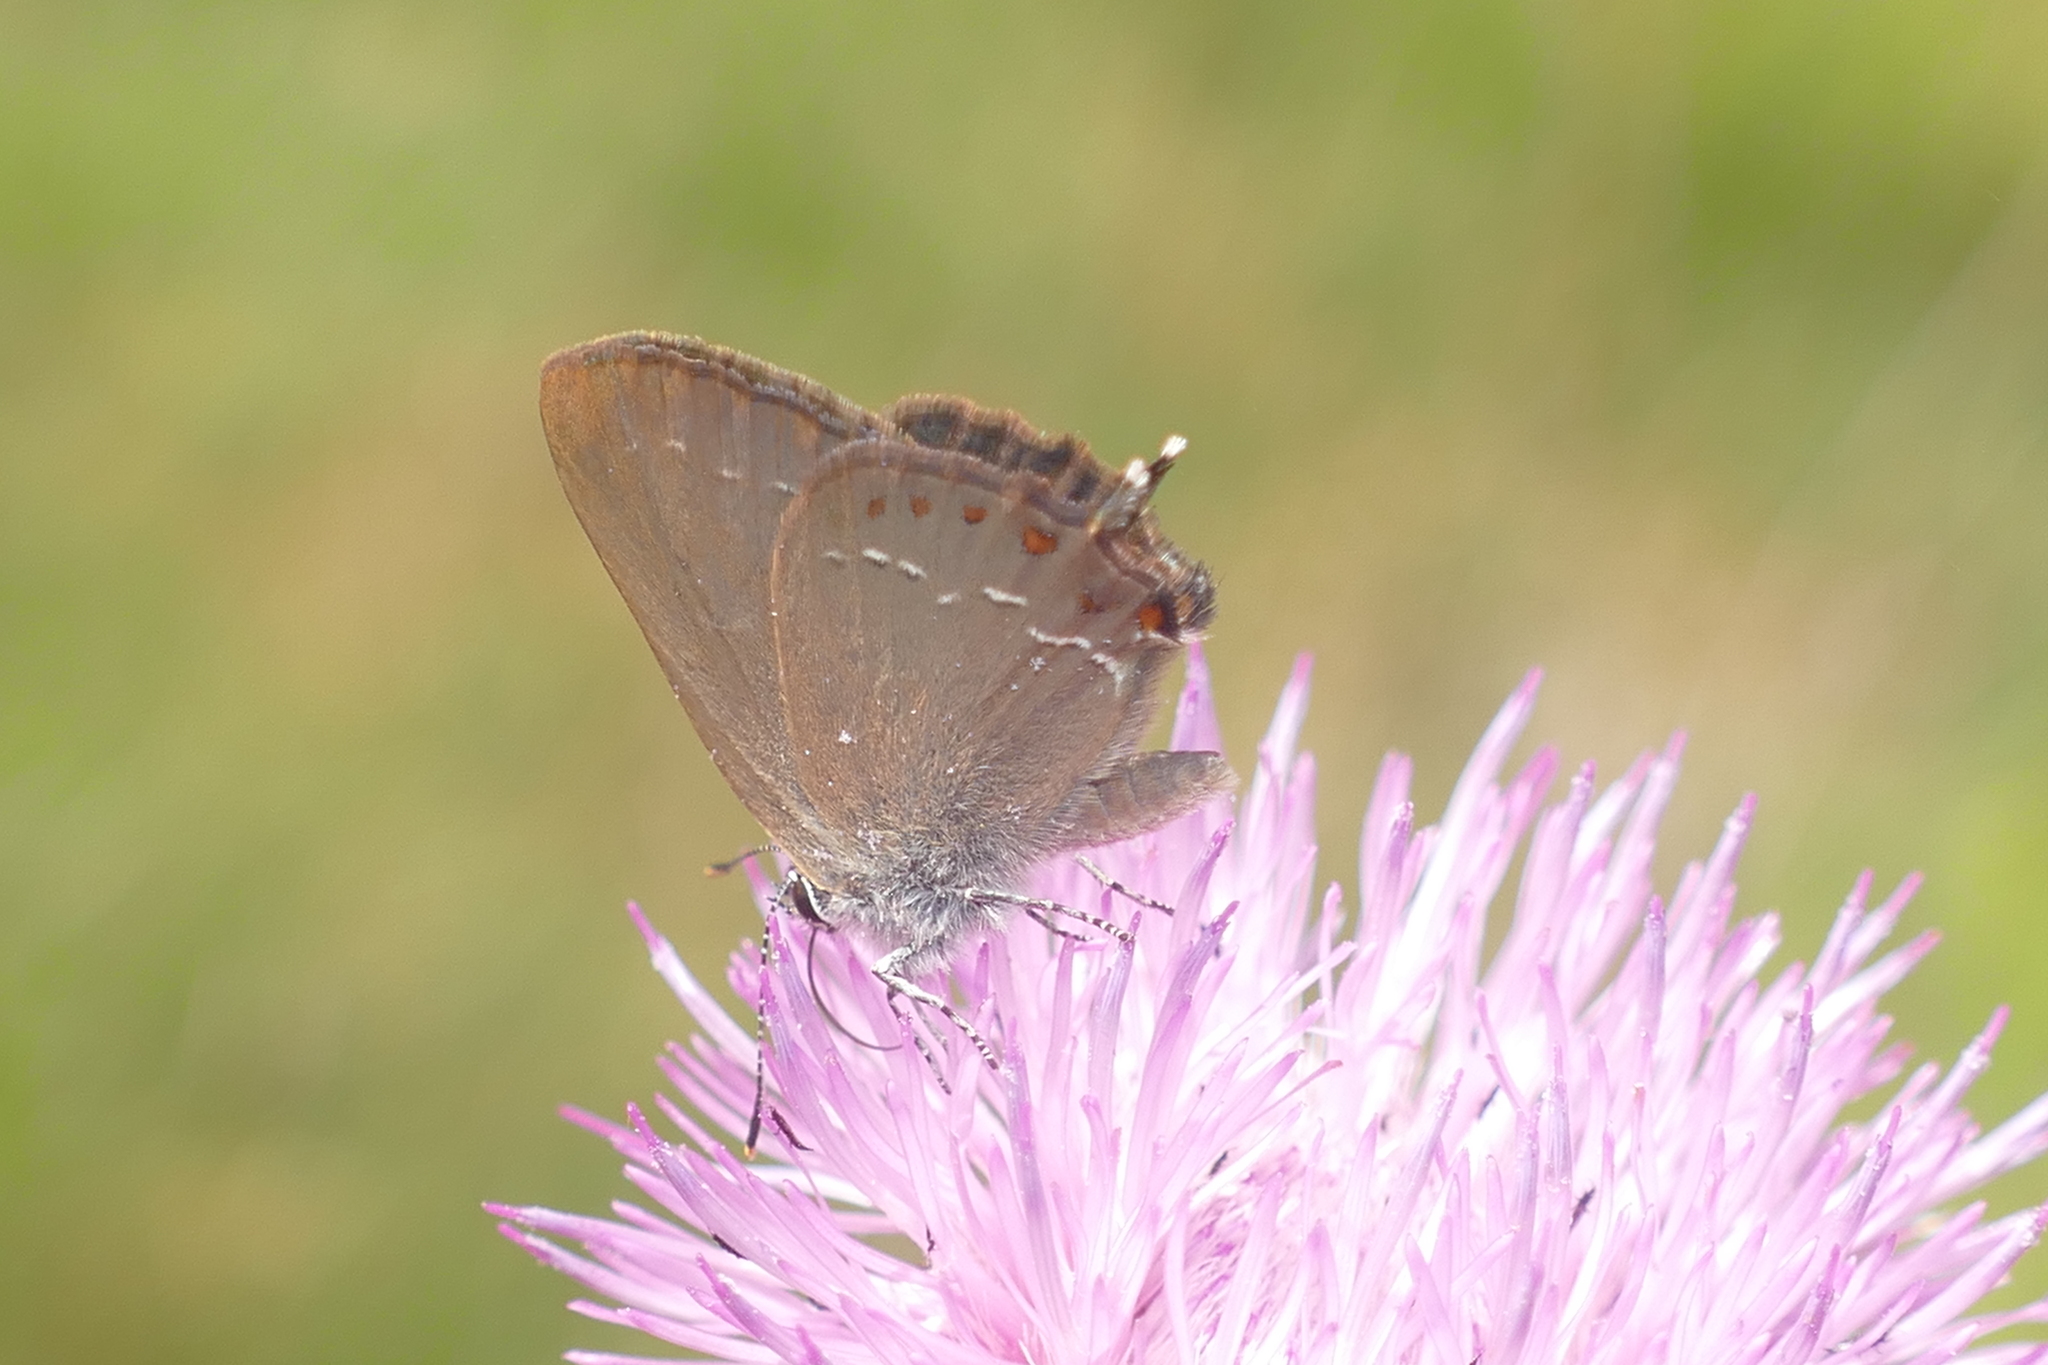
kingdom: Animalia
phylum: Arthropoda
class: Insecta
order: Lepidoptera
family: Lycaenidae
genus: Fixsenia
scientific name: Fixsenia esculi
